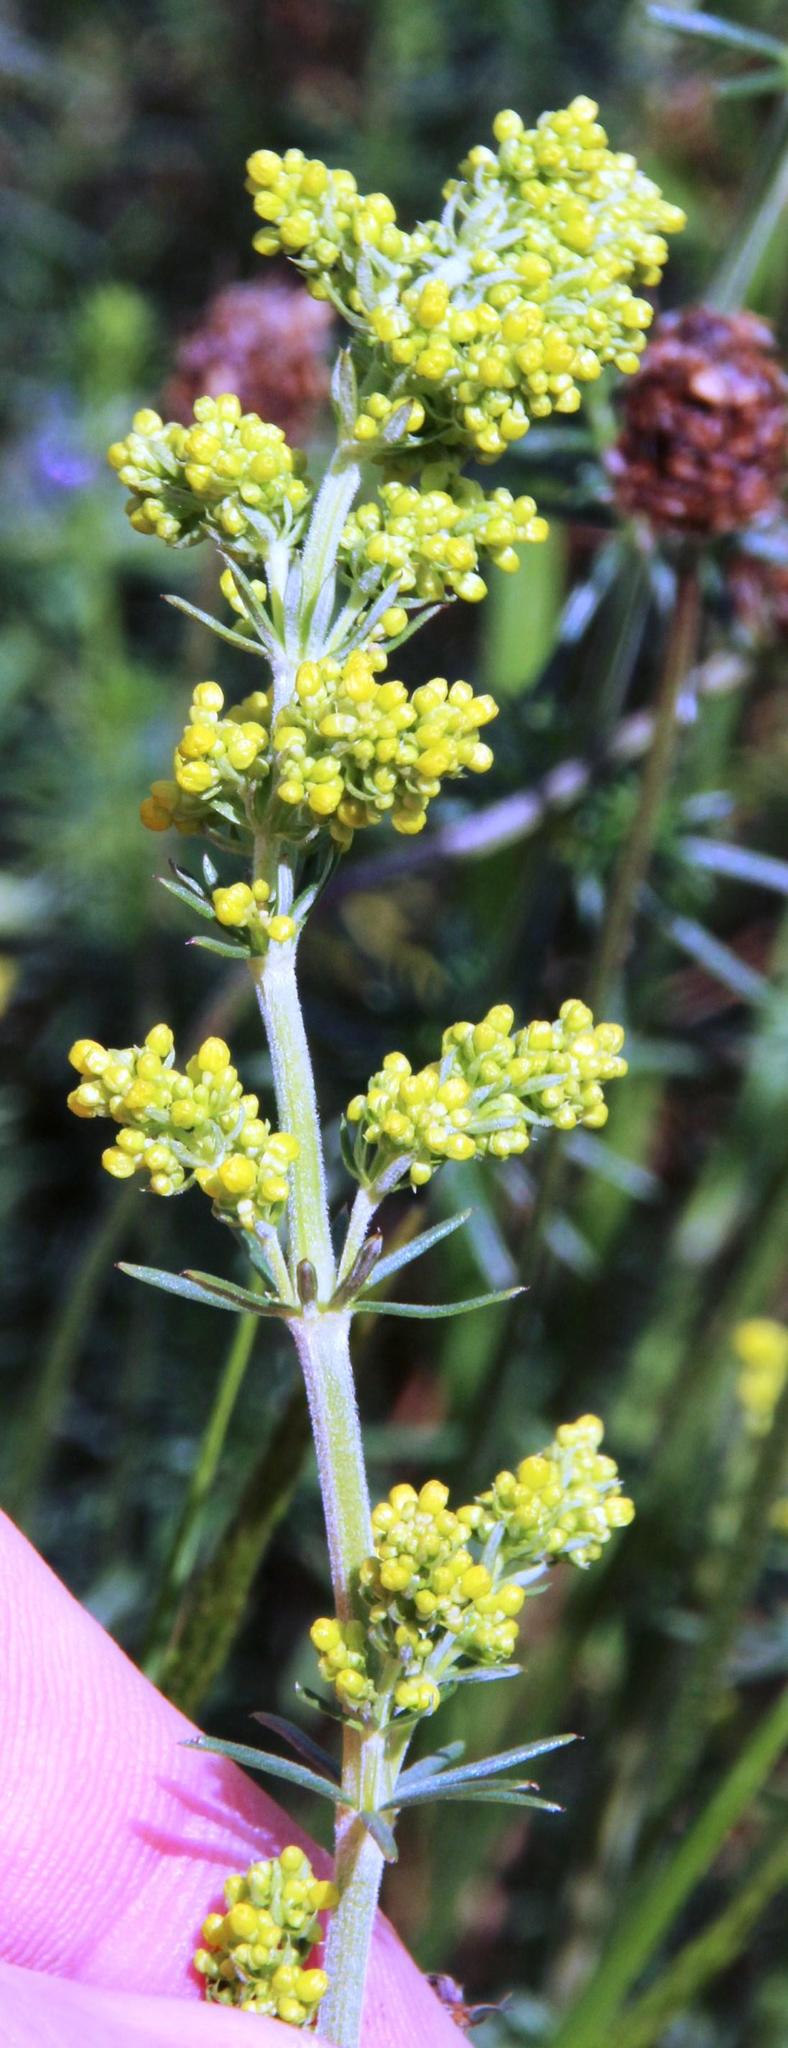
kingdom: Plantae
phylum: Tracheophyta
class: Magnoliopsida
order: Gentianales
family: Rubiaceae
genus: Galium
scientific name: Galium verum
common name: Lady's bedstraw
